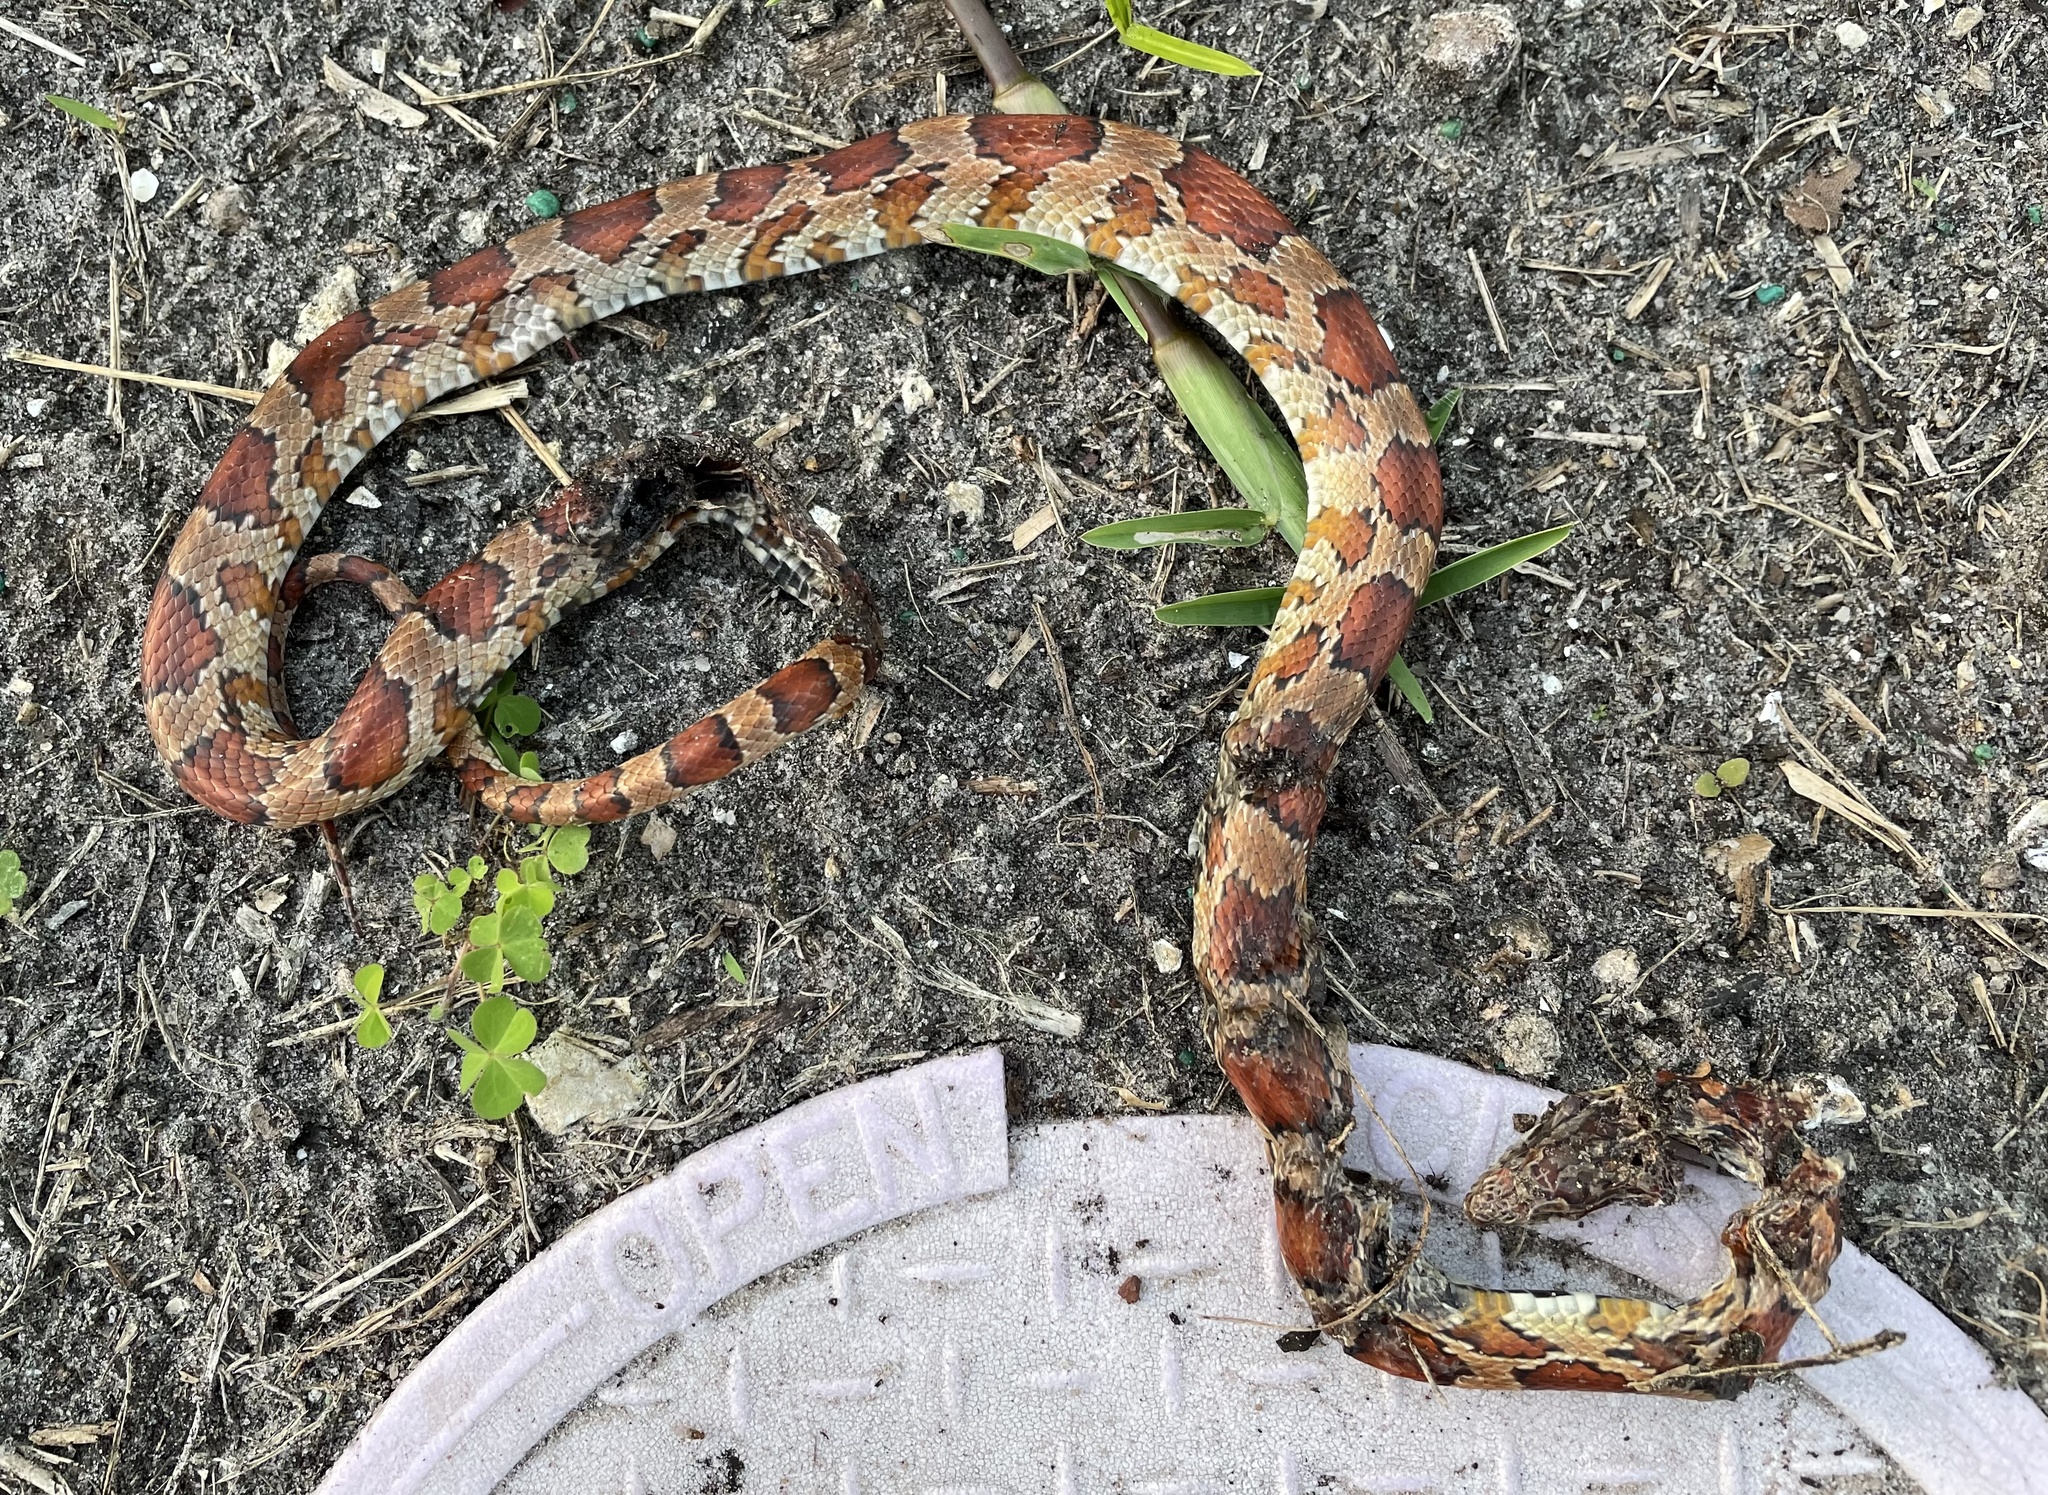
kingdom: Animalia
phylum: Chordata
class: Squamata
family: Colubridae
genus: Pantherophis
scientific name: Pantherophis guttatus
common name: Red cornsnake
